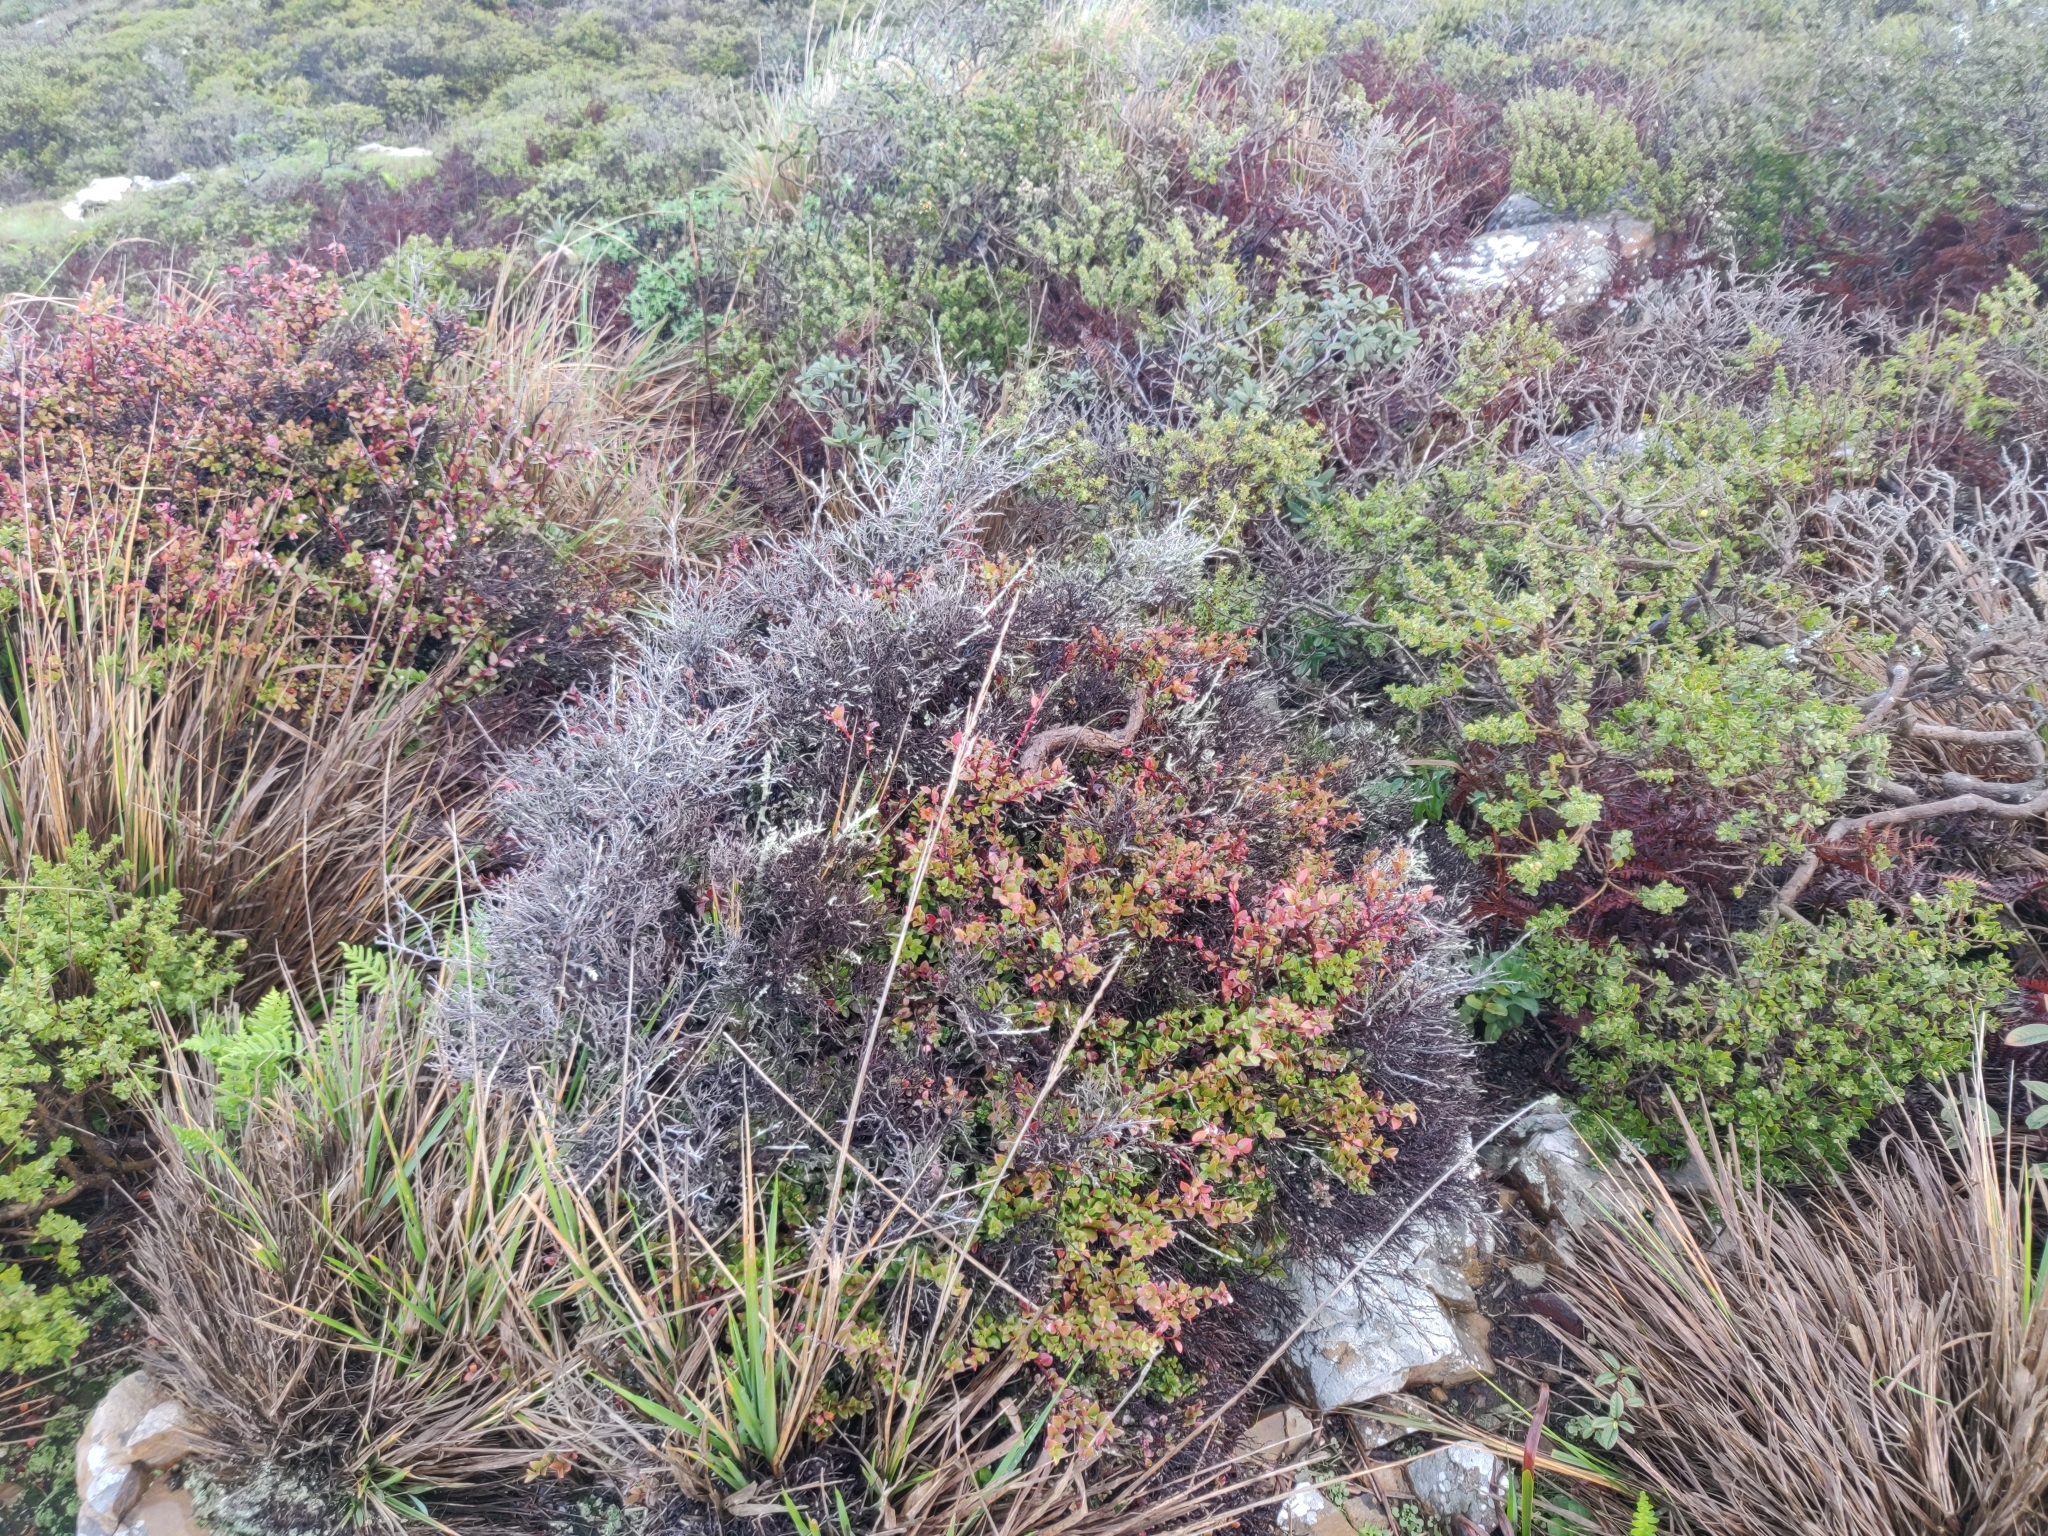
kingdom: Plantae
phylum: Tracheophyta
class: Magnoliopsida
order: Ericales
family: Ericaceae
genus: Vaccinium
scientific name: Vaccinium ovatum
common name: California-huckleberry
